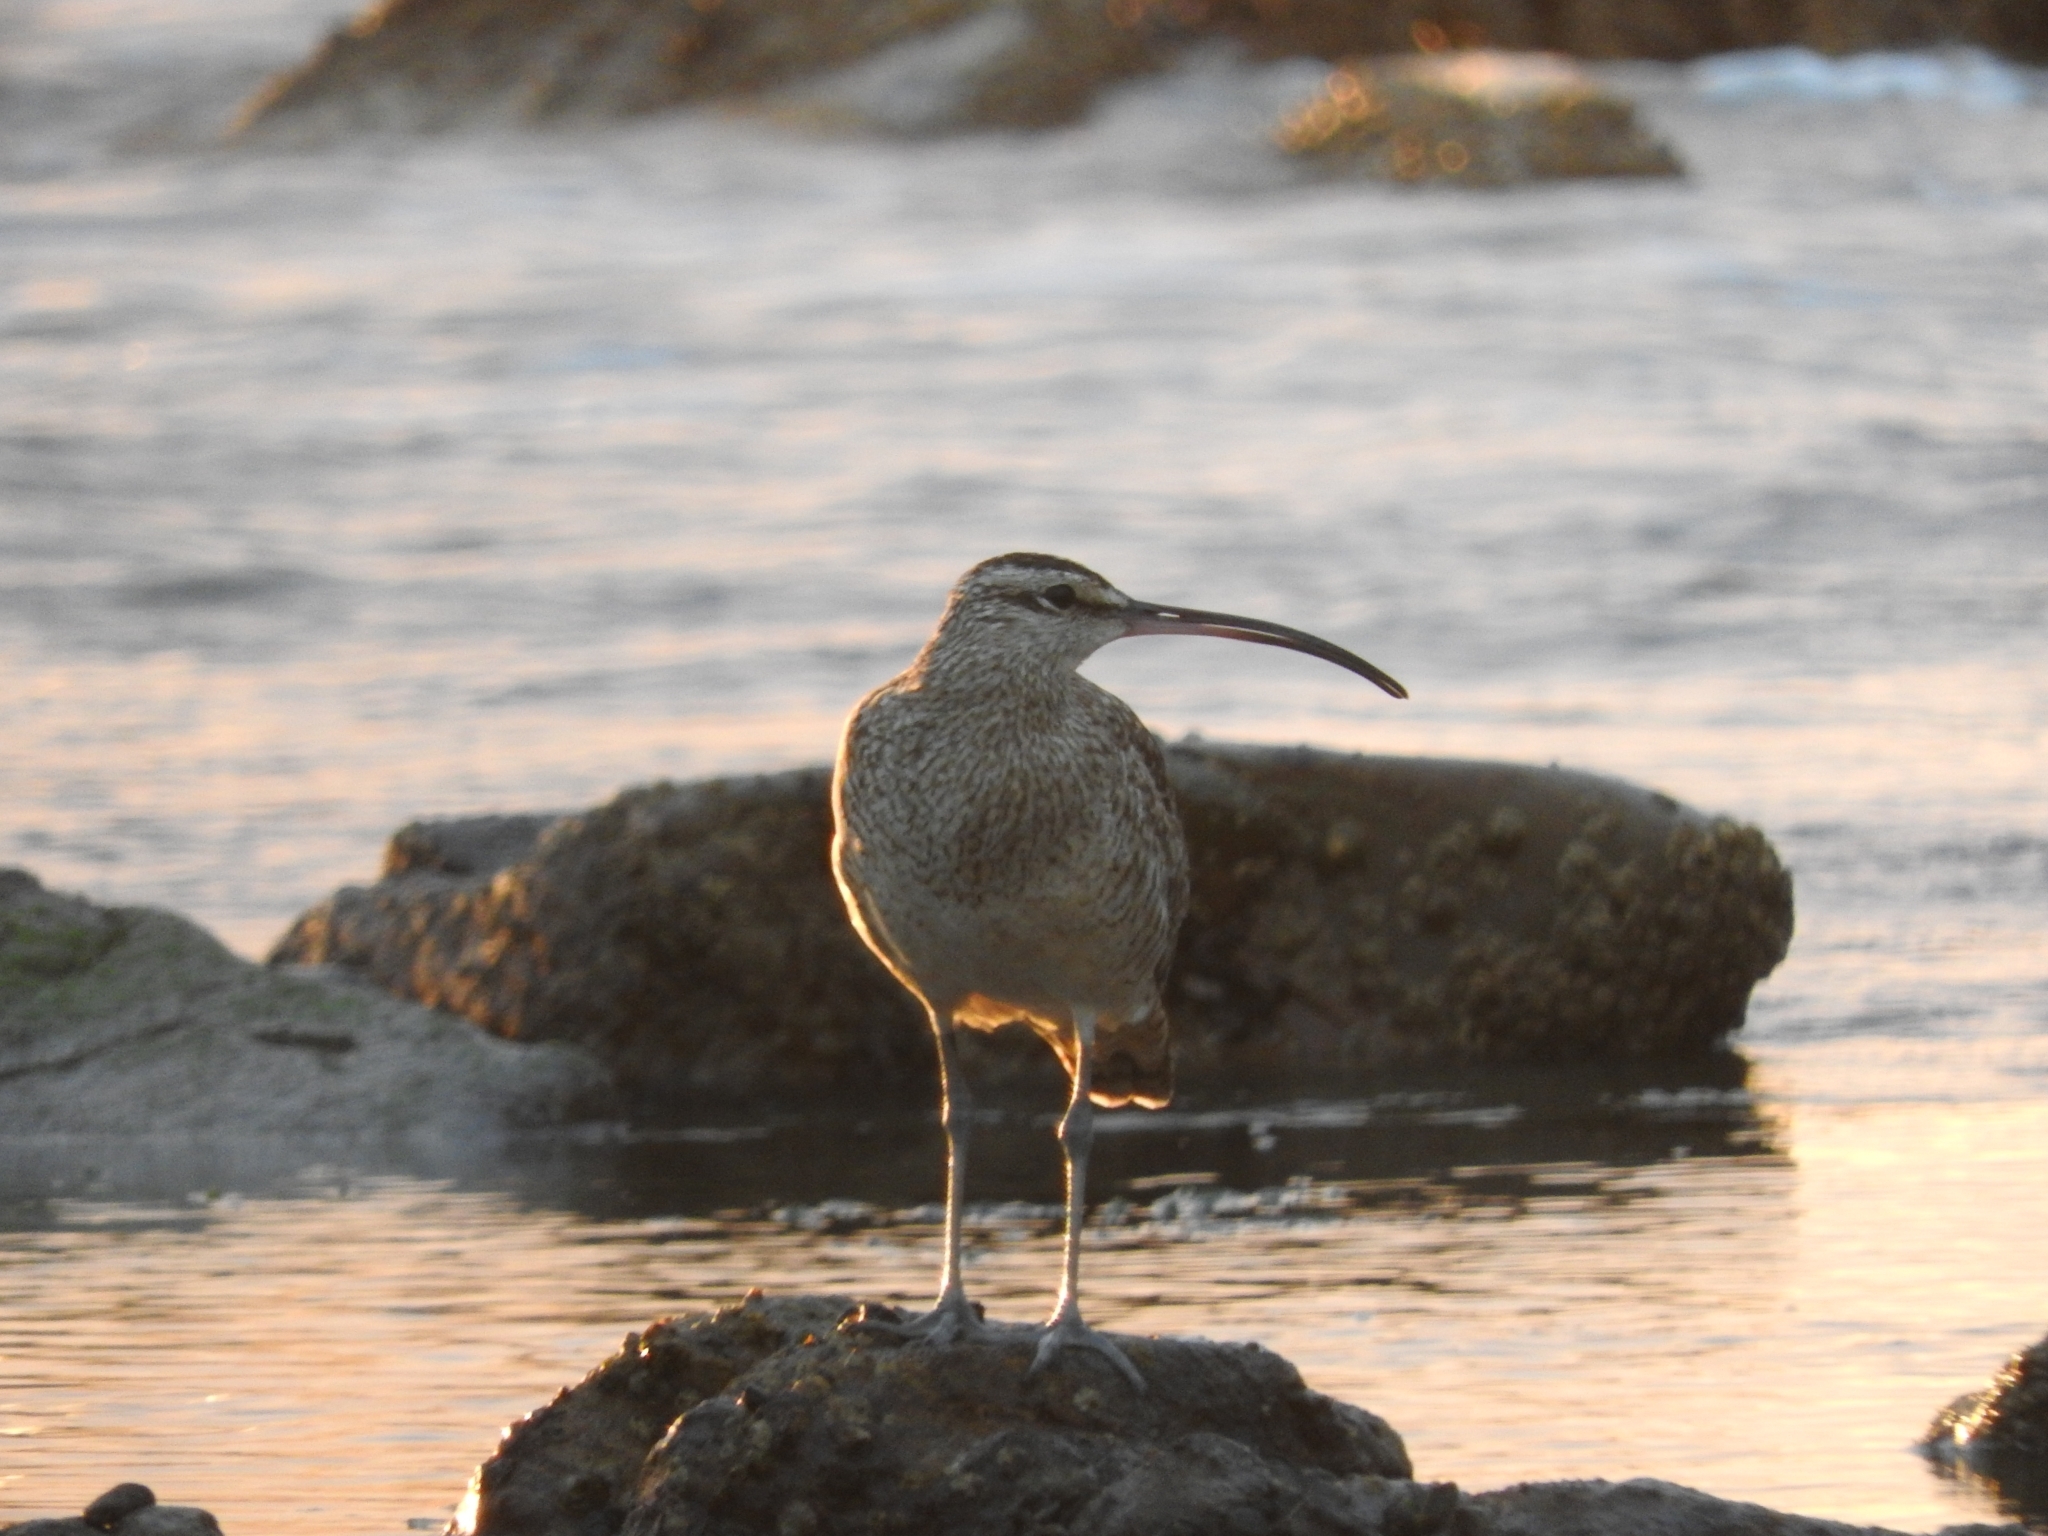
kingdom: Animalia
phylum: Chordata
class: Aves
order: Charadriiformes
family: Scolopacidae
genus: Numenius
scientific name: Numenius phaeopus
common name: Whimbrel
